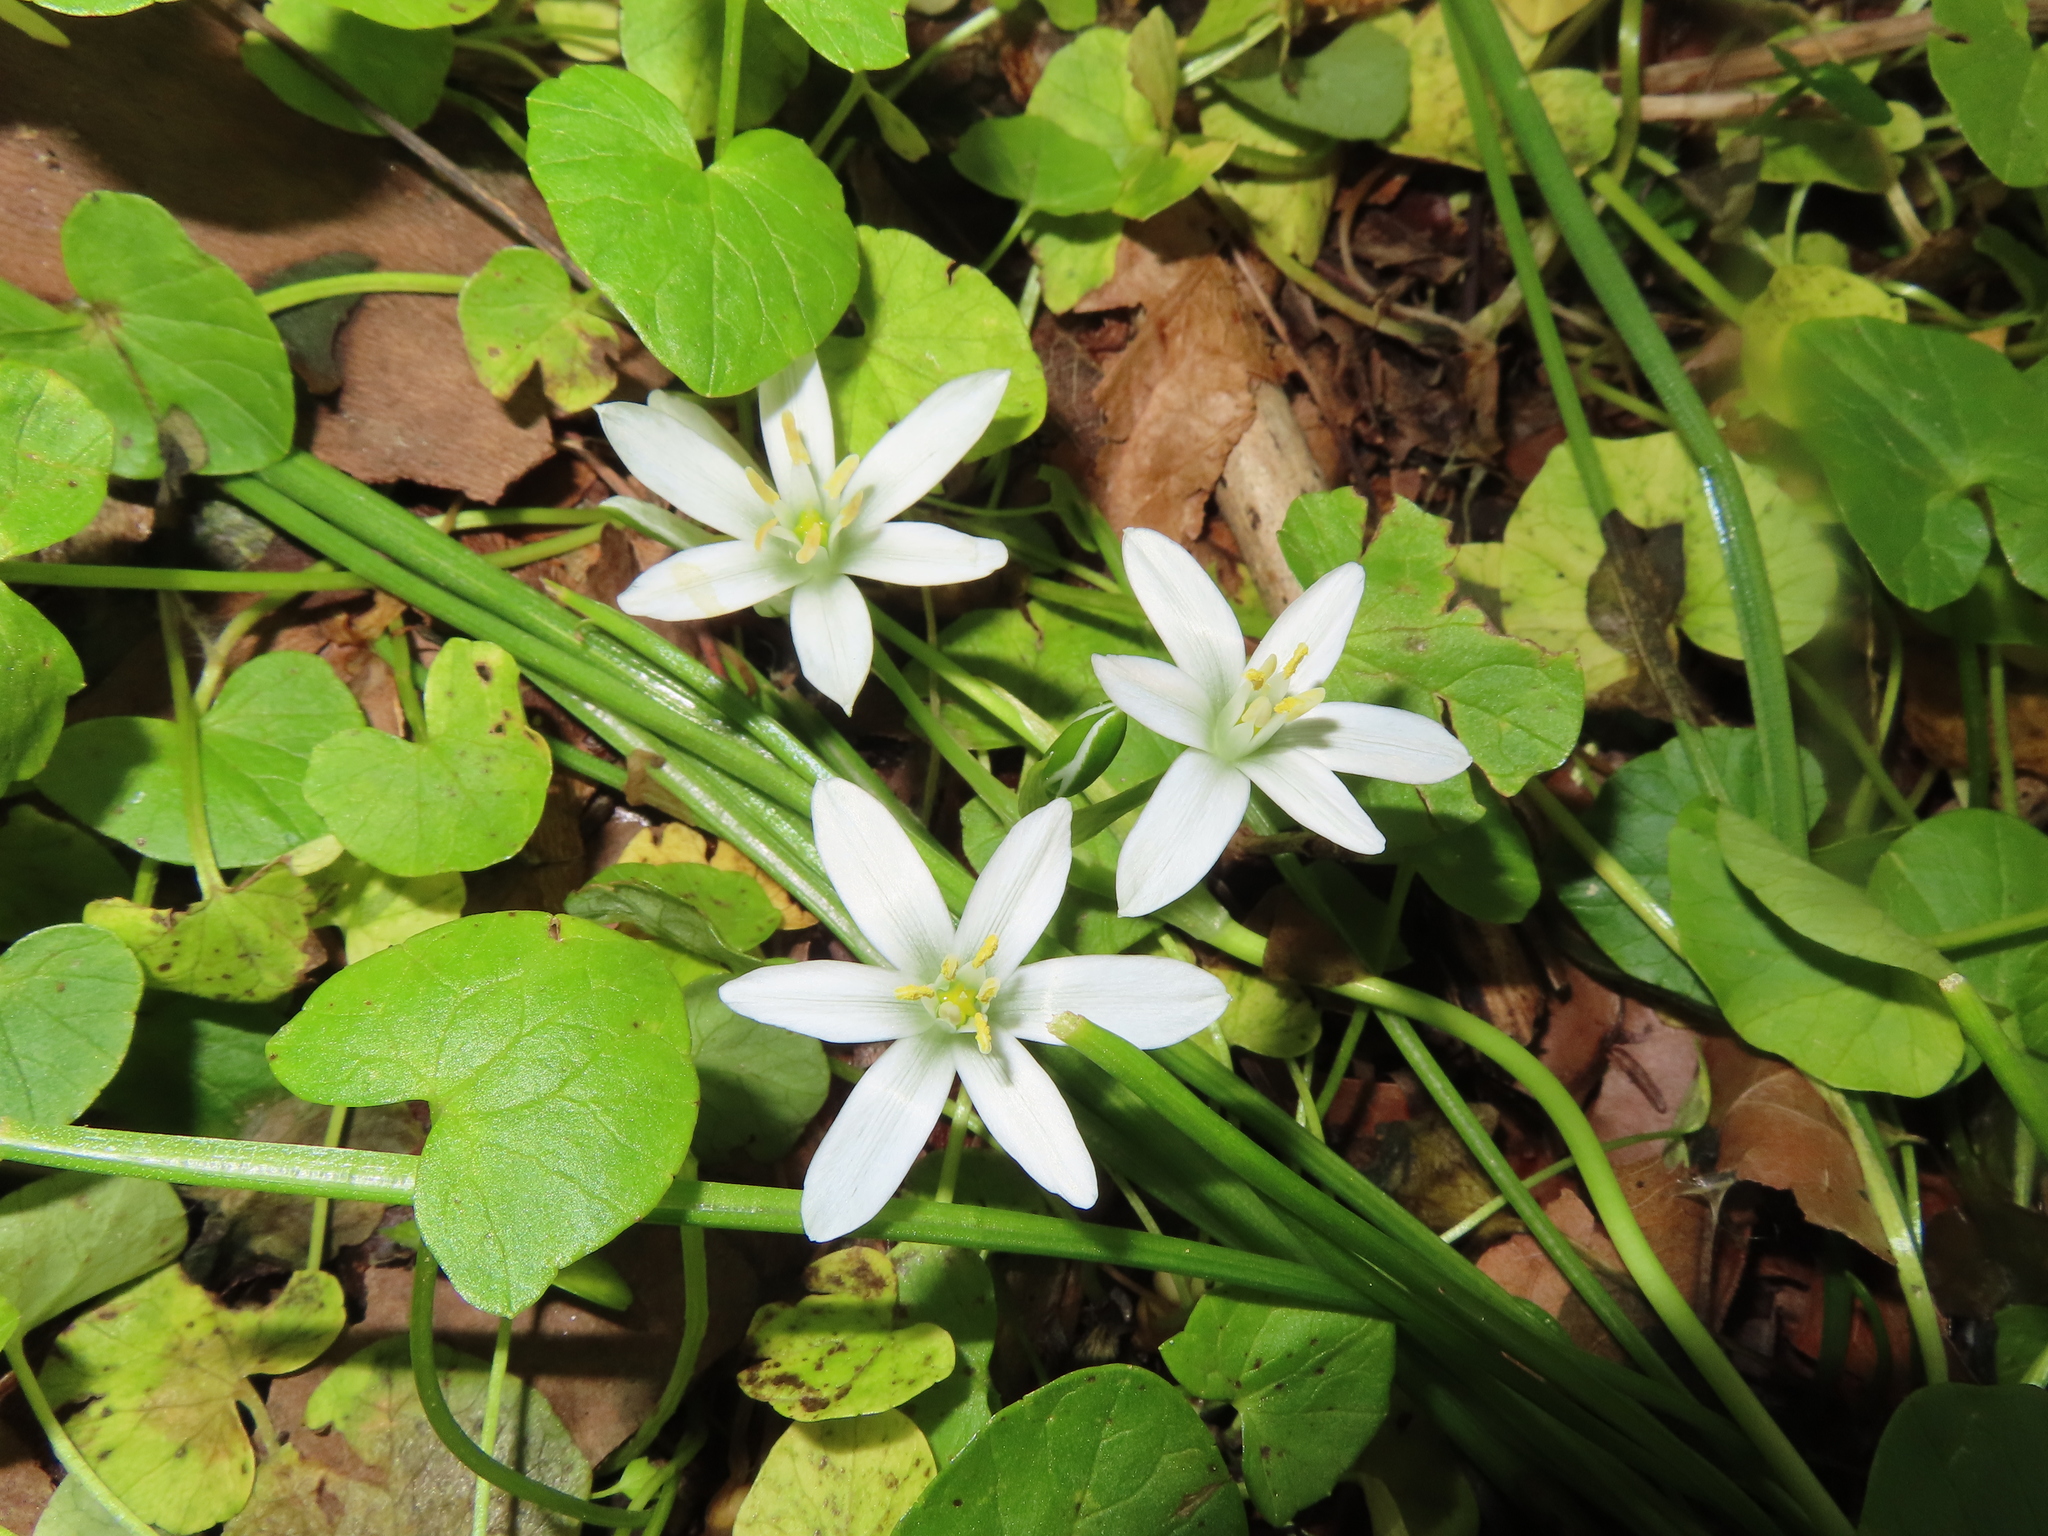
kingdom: Plantae
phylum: Tracheophyta
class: Liliopsida
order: Asparagales
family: Asparagaceae
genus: Ornithogalum
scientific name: Ornithogalum umbellatum
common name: Garden star-of-bethlehem
